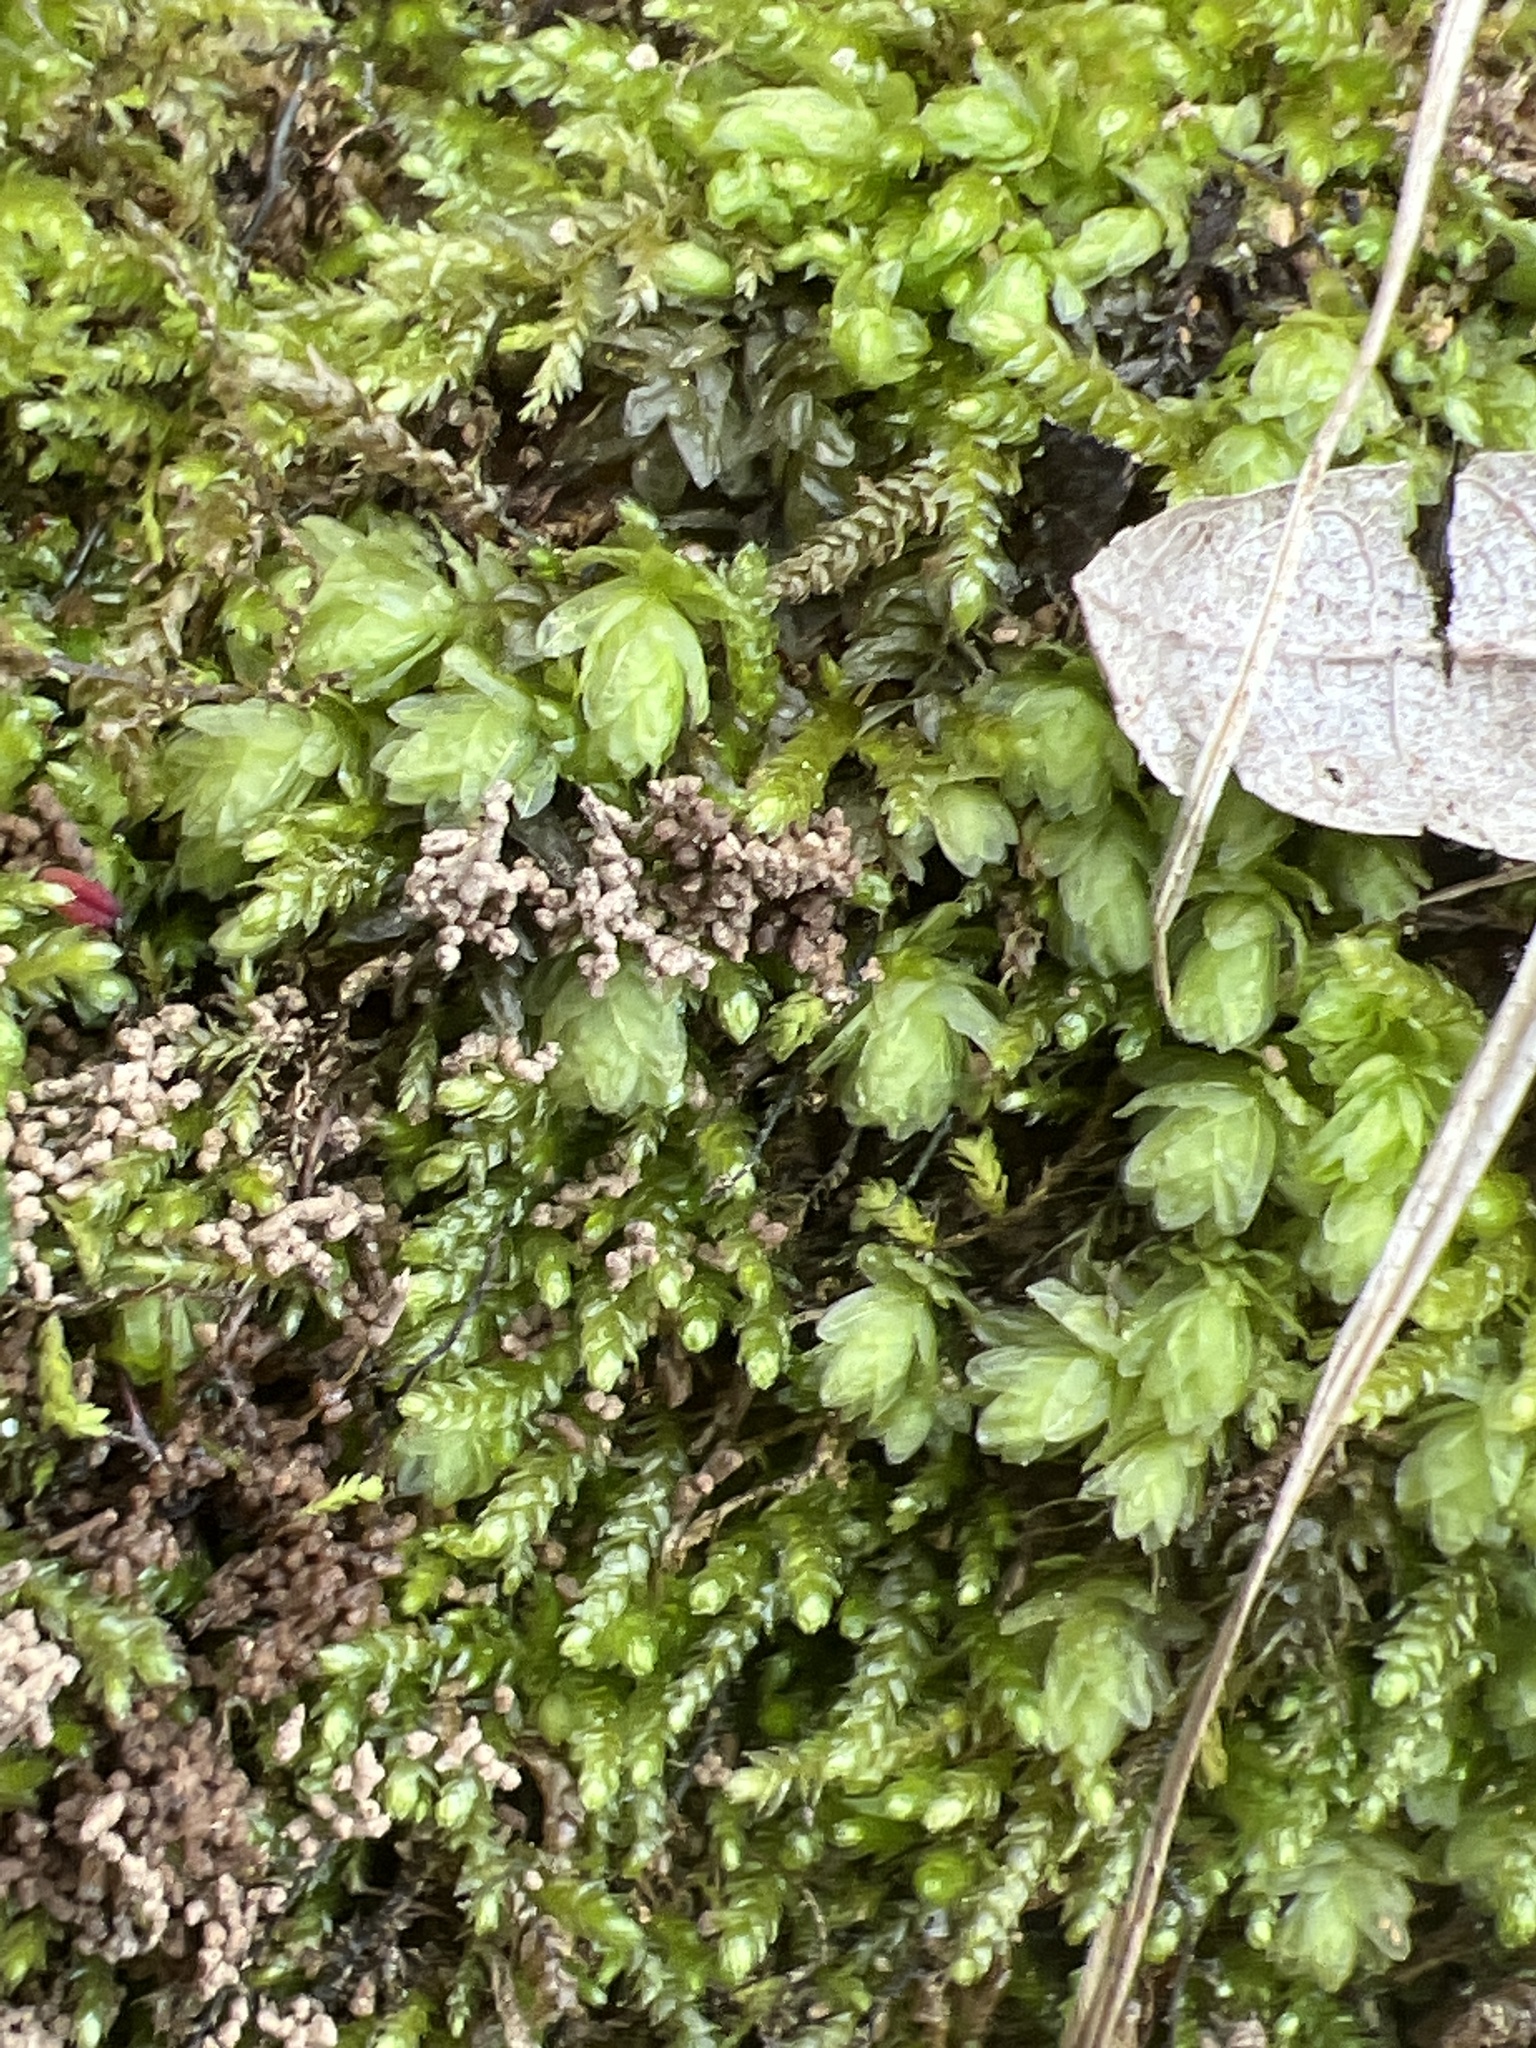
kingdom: Plantae
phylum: Bryophyta
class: Bryopsida
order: Aulacomniales
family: Aulacomniaceae
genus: Aulacomnium
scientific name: Aulacomnium heterostichum
